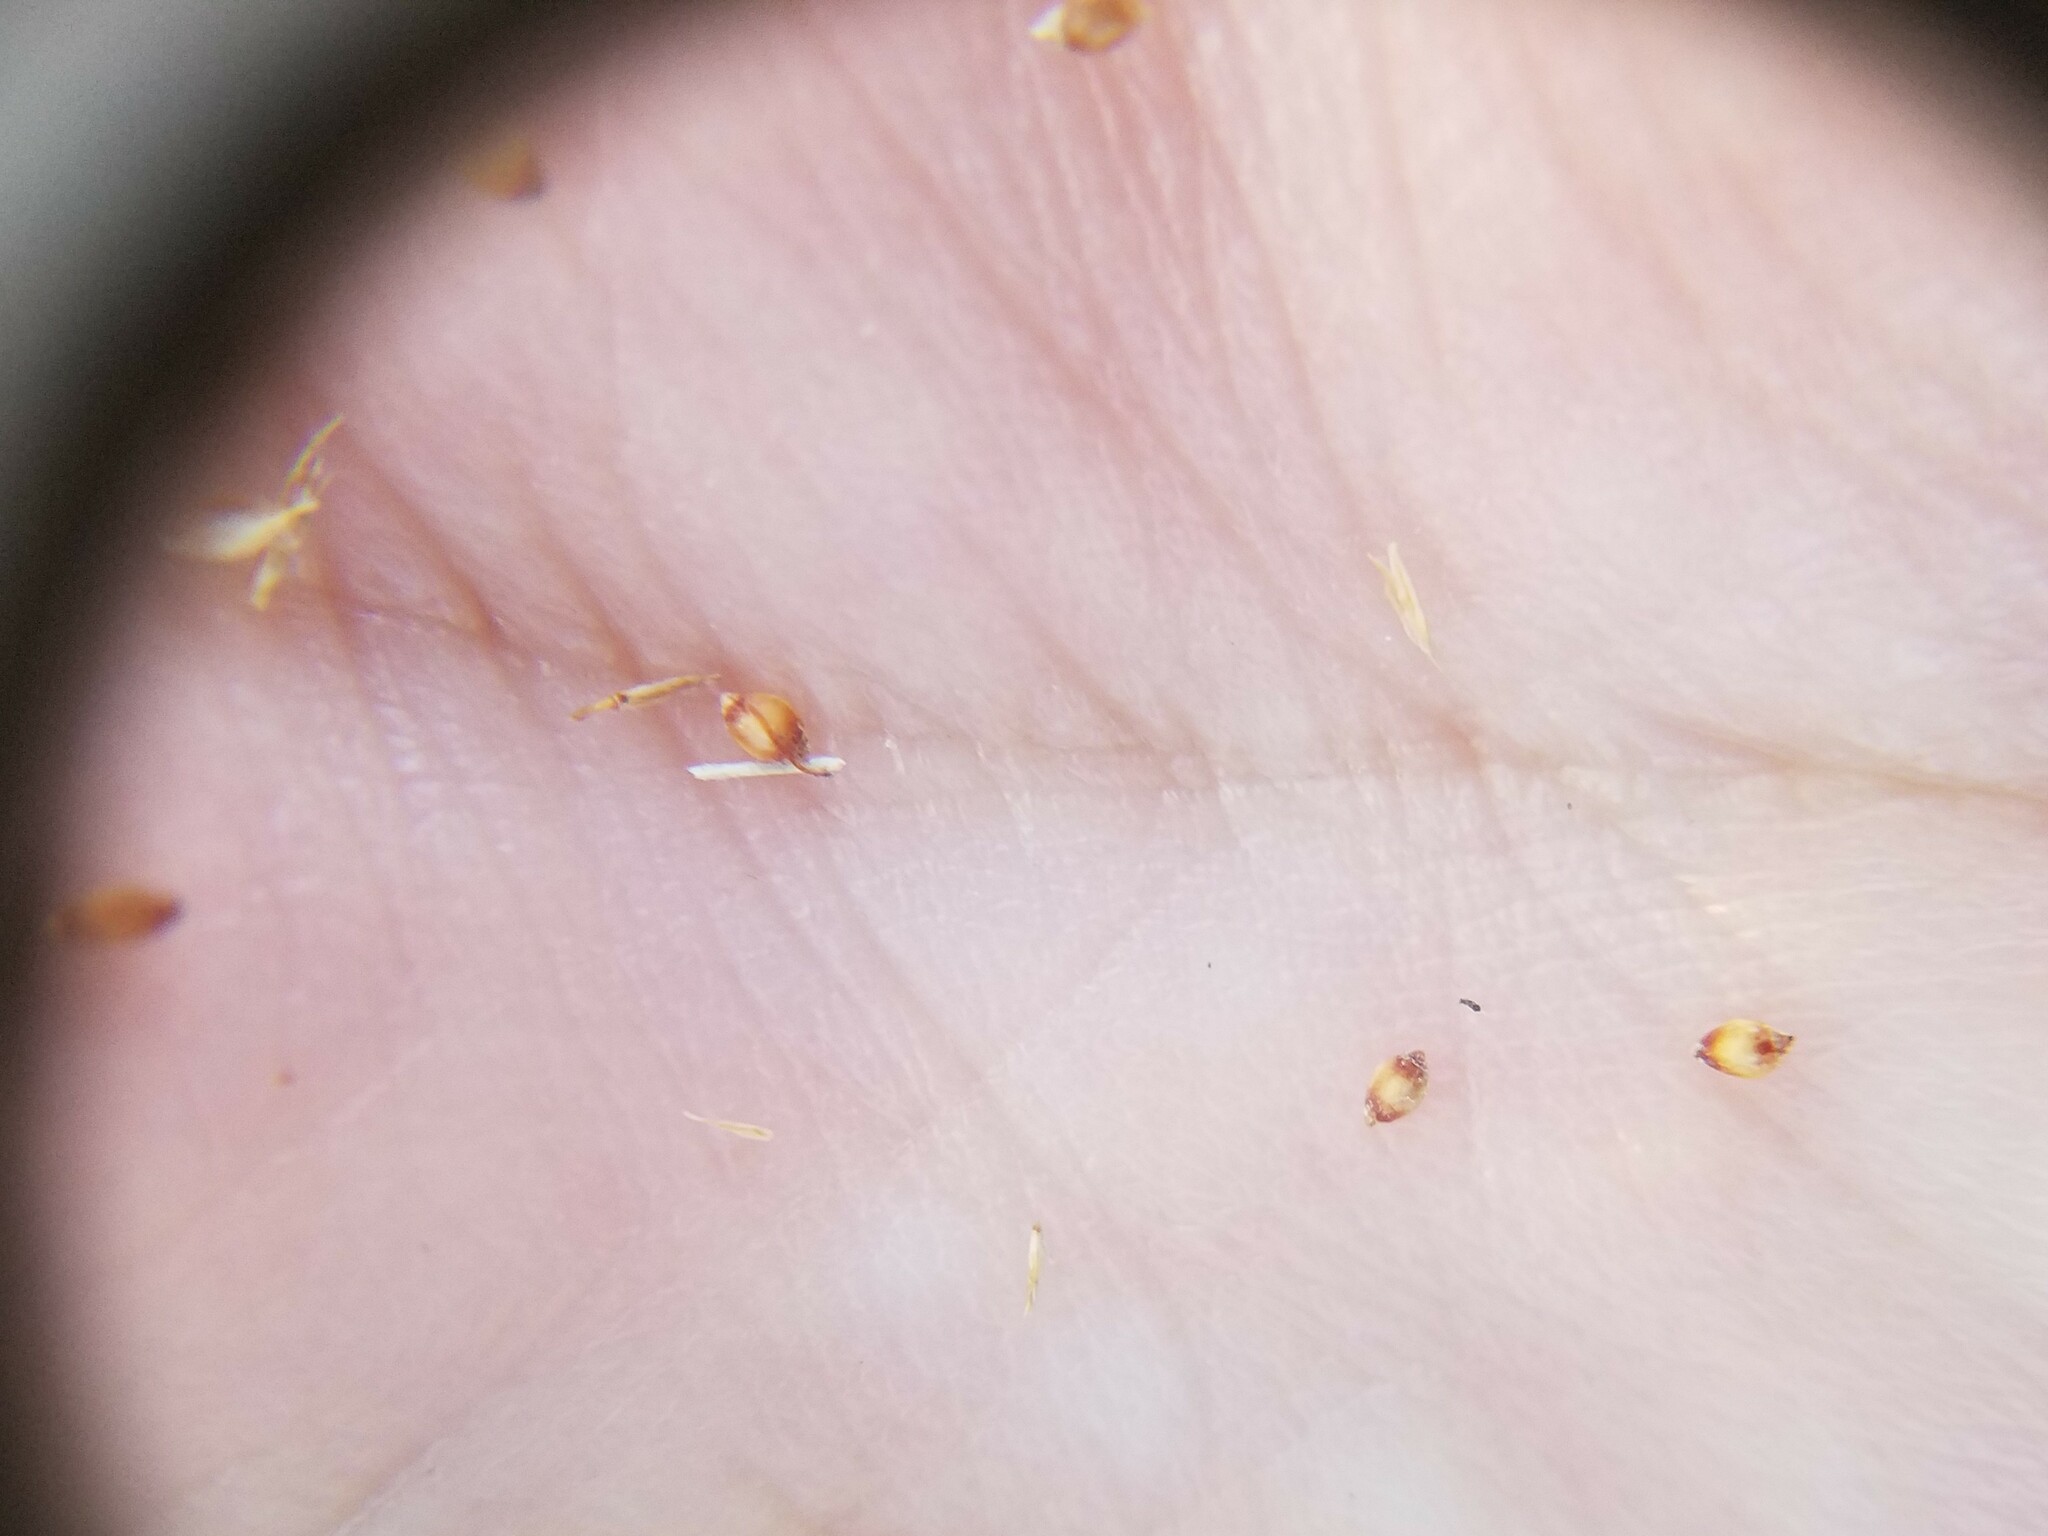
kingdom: Plantae
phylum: Tracheophyta
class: Liliopsida
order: Poales
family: Cyperaceae
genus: Rhynchospora
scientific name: Rhynchospora chapmanii
